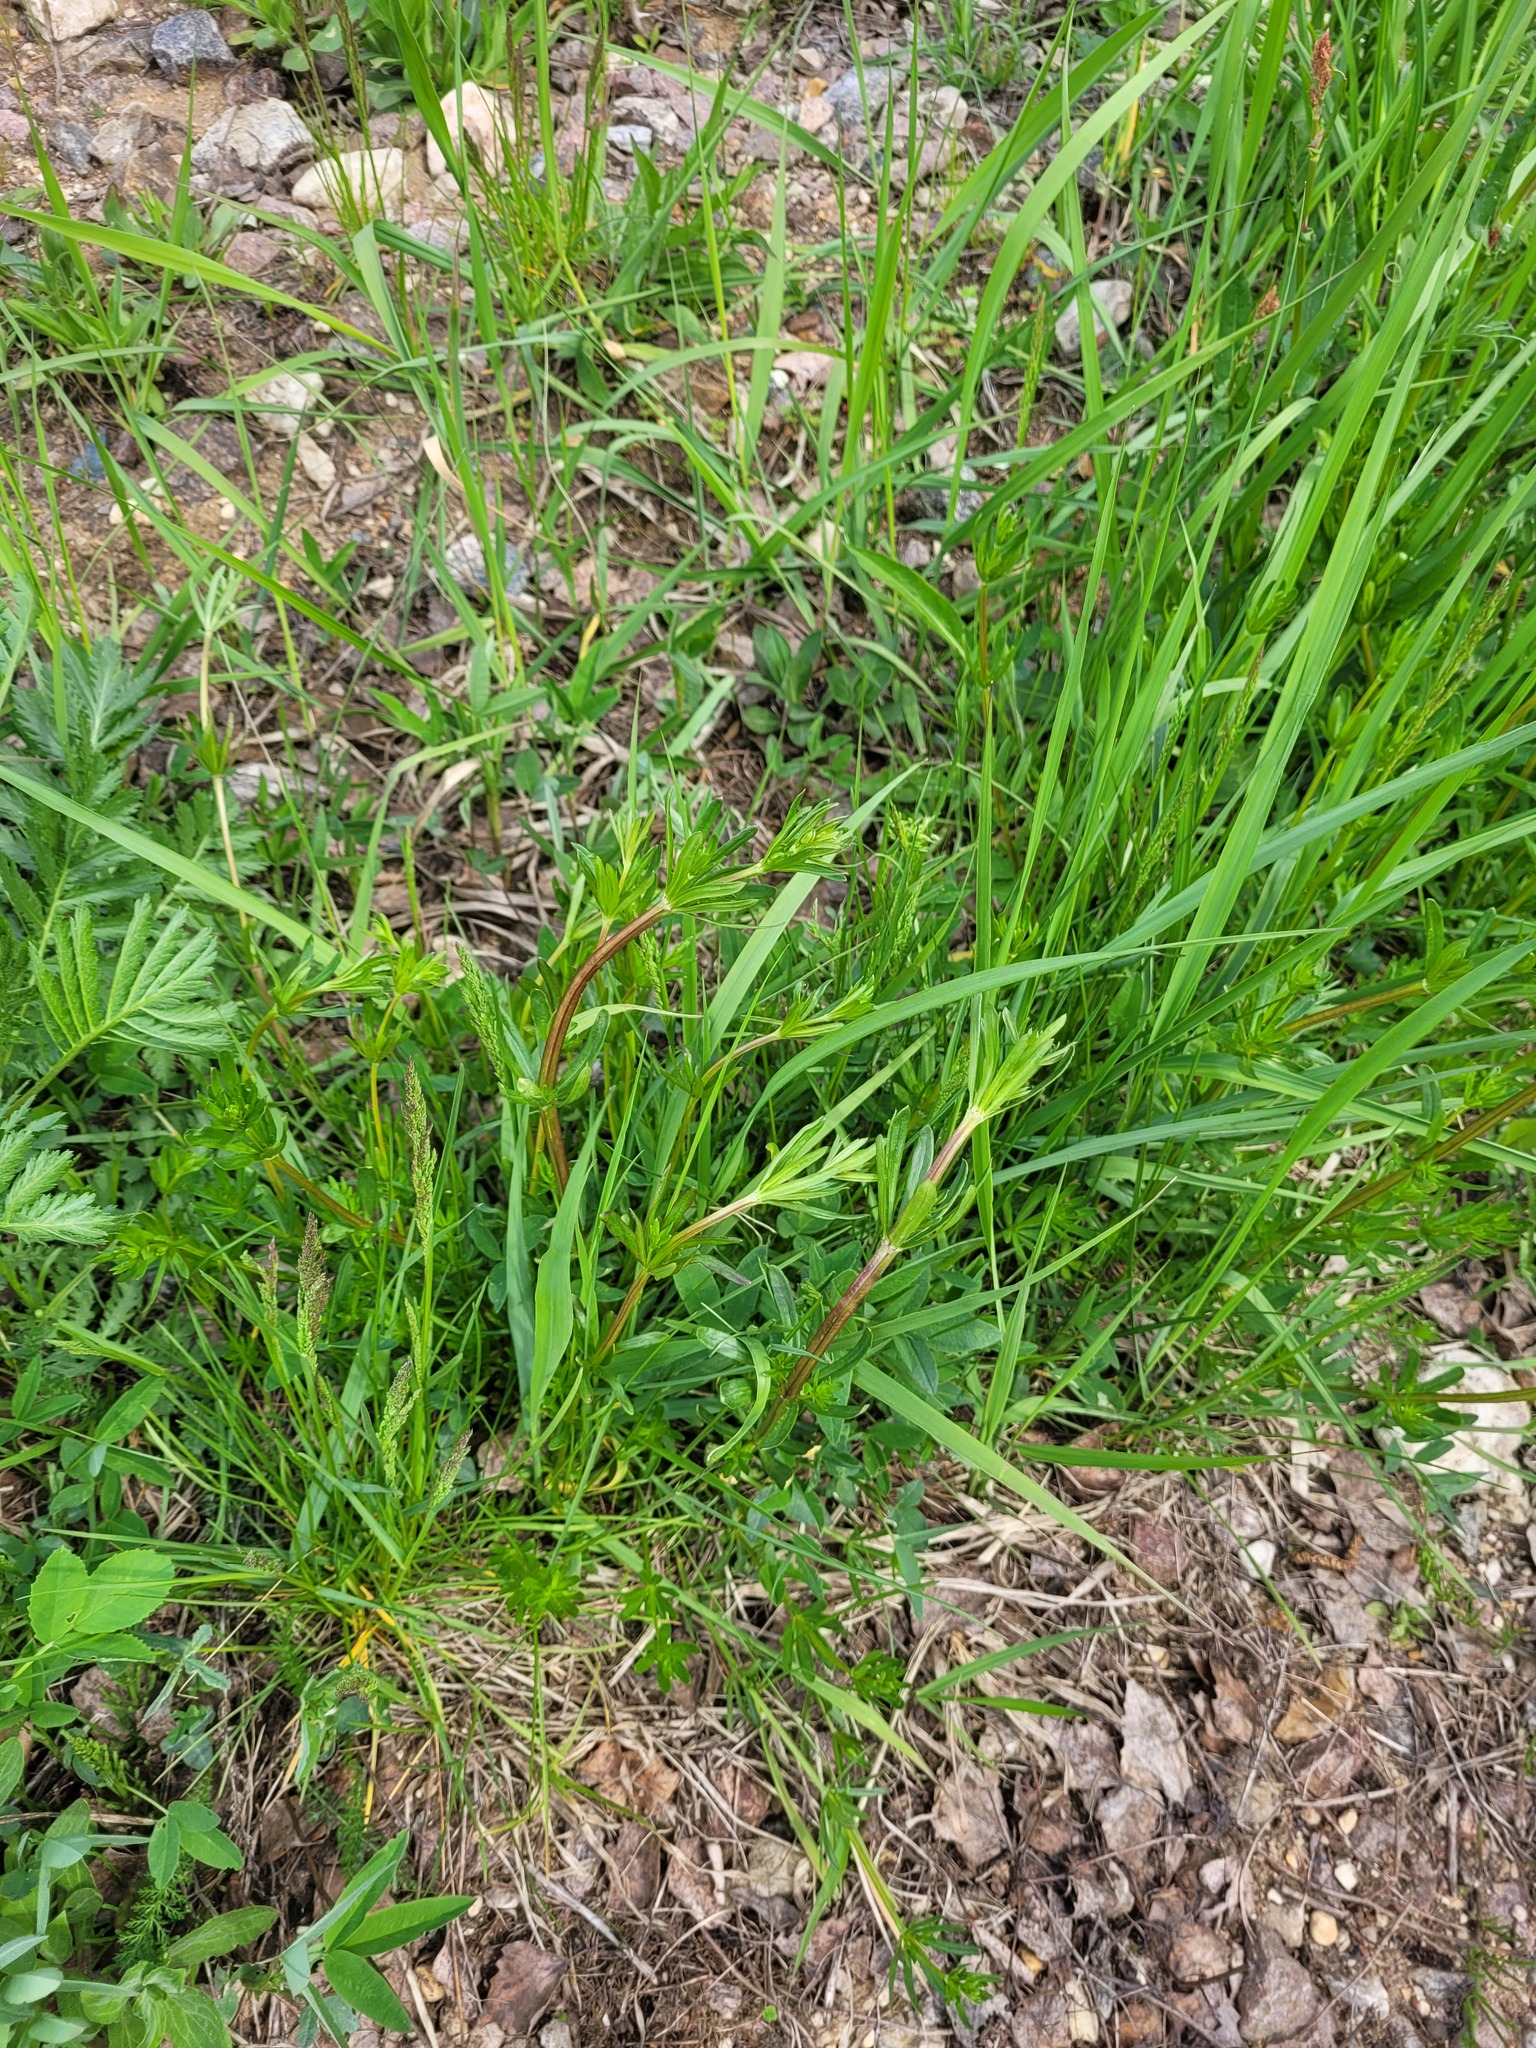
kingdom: Plantae
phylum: Tracheophyta
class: Magnoliopsida
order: Gentianales
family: Rubiaceae
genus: Galium
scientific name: Galium mollugo
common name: Hedge bedstraw
